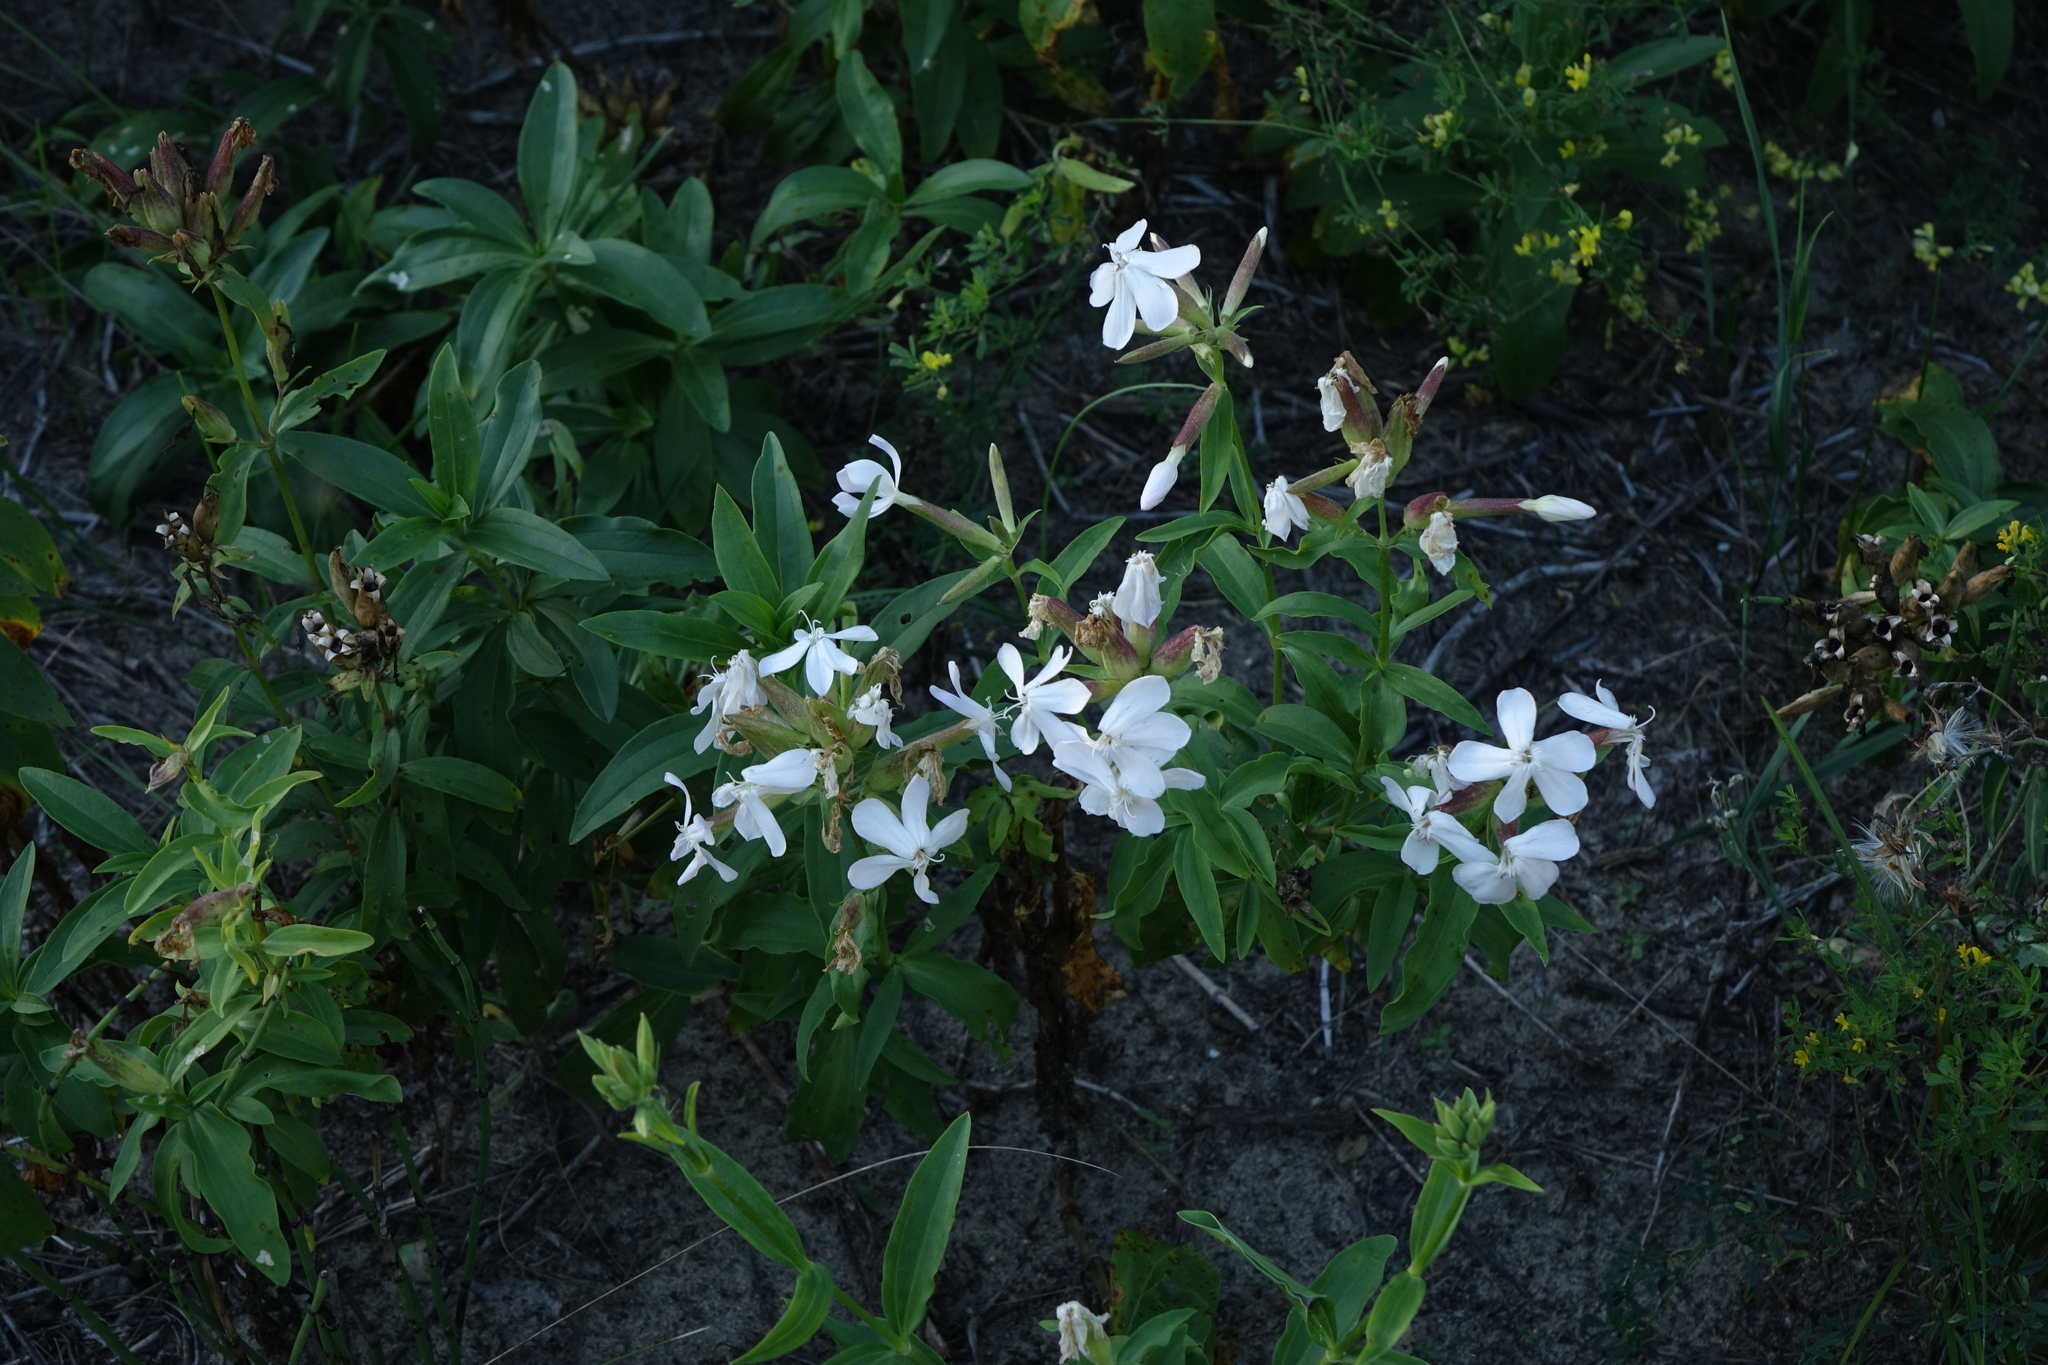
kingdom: Plantae
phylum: Tracheophyta
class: Magnoliopsida
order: Caryophyllales
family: Caryophyllaceae
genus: Saponaria
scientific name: Saponaria officinalis
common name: Soapwort
